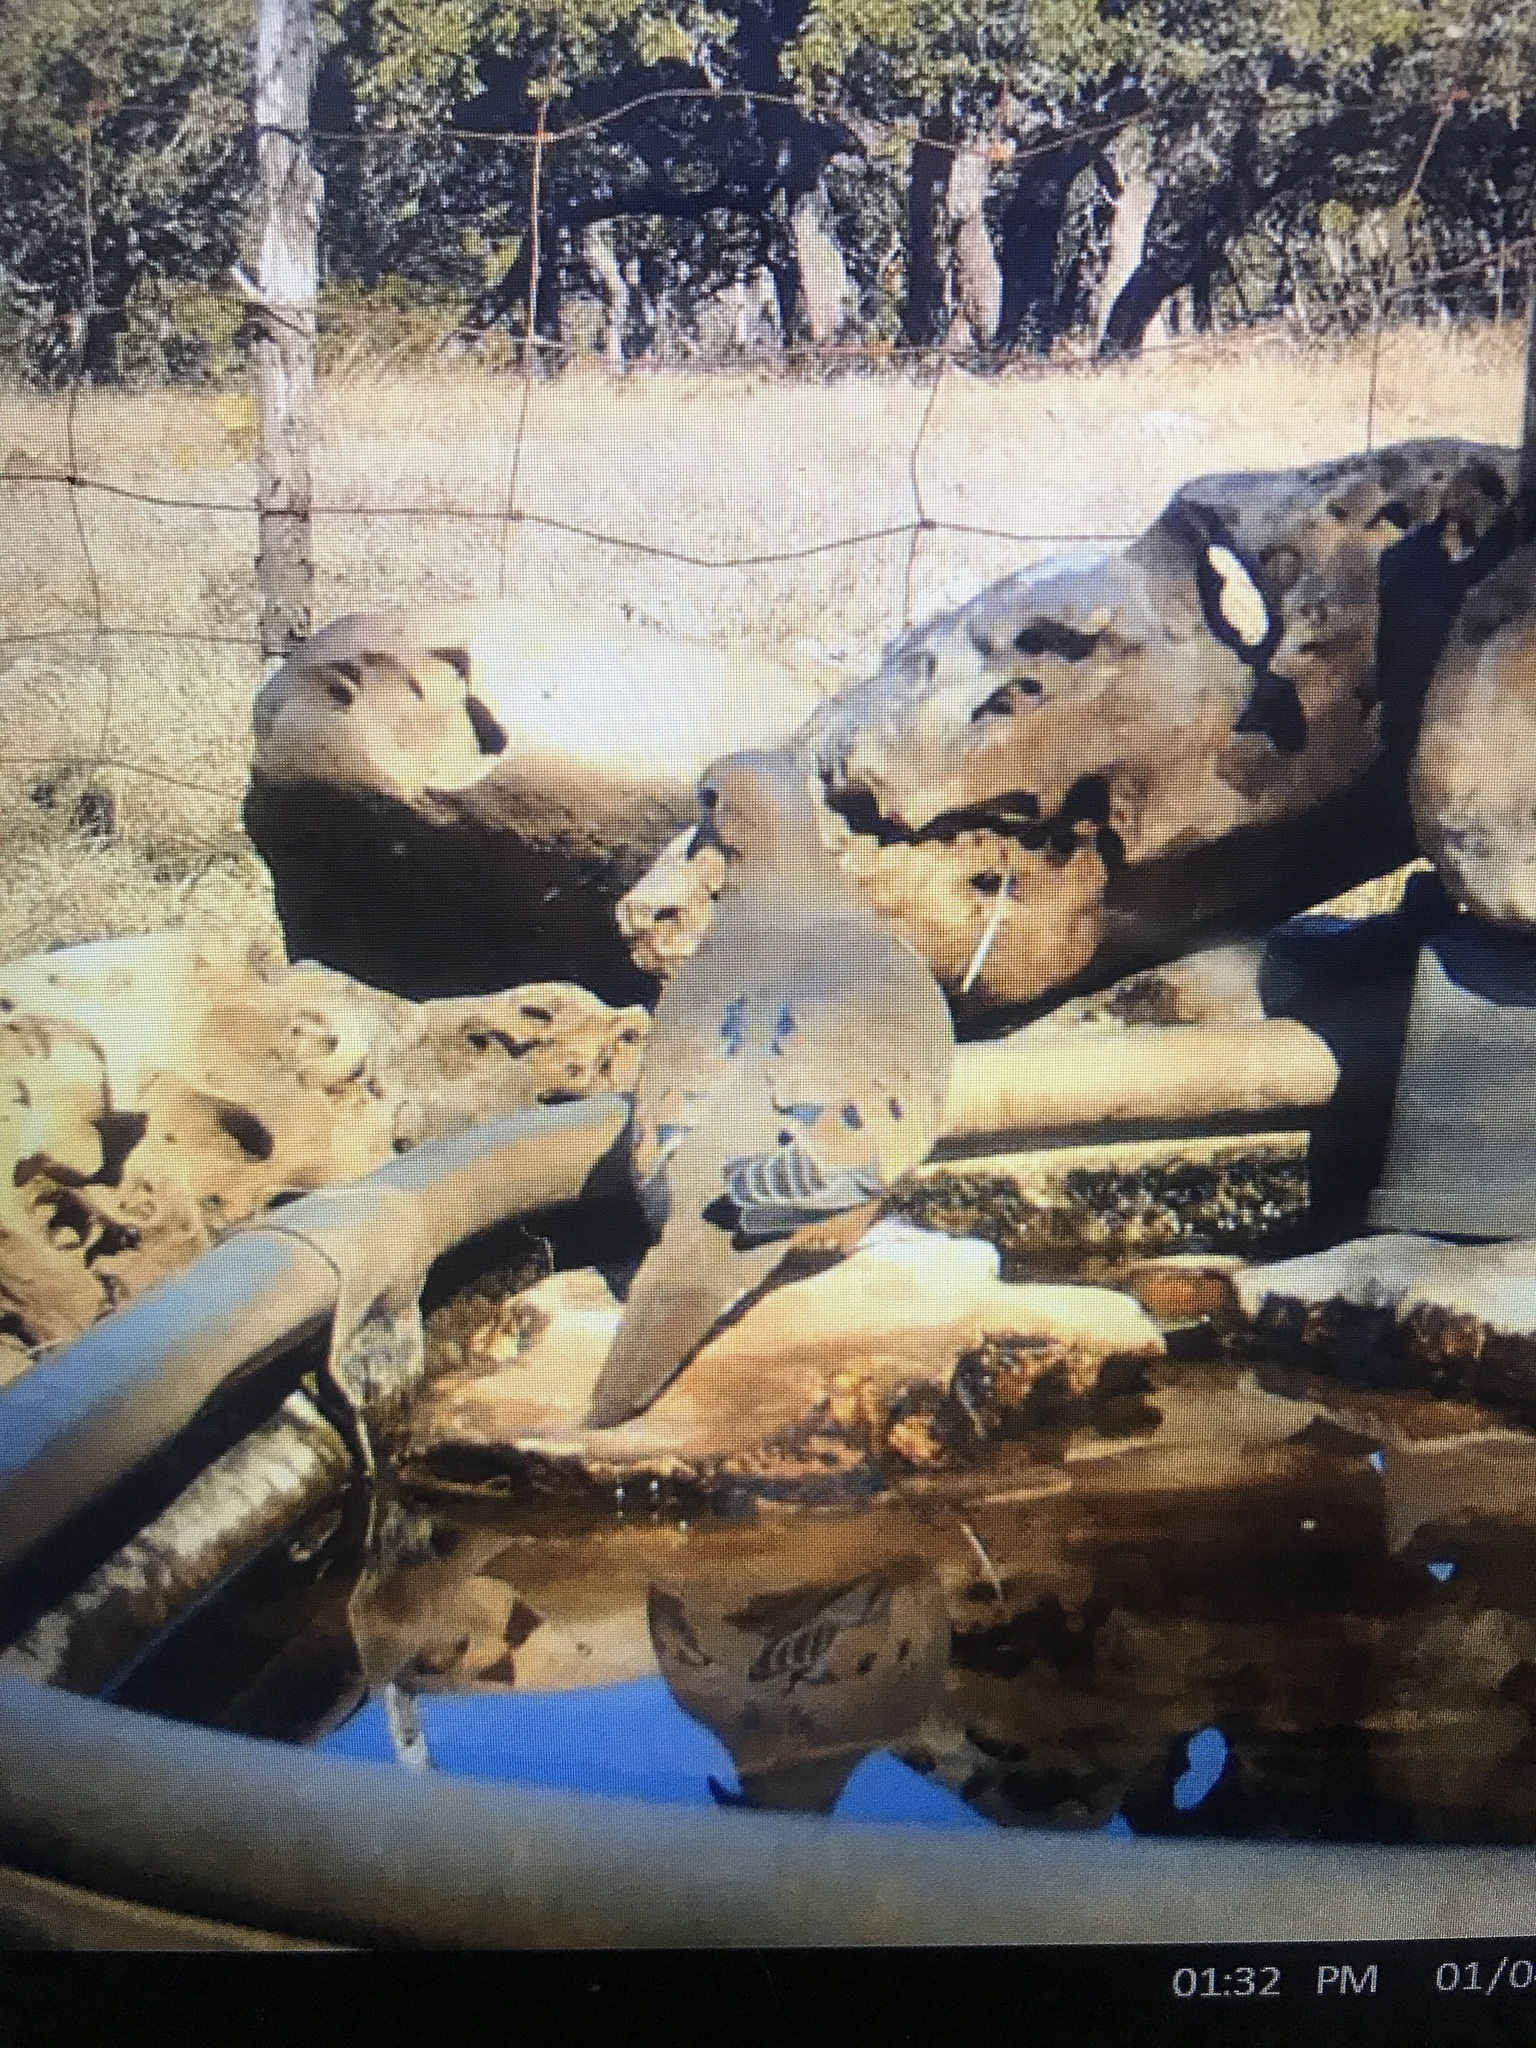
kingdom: Animalia
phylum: Chordata
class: Aves
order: Columbiformes
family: Columbidae
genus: Zenaida
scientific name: Zenaida macroura
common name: Mourning dove
